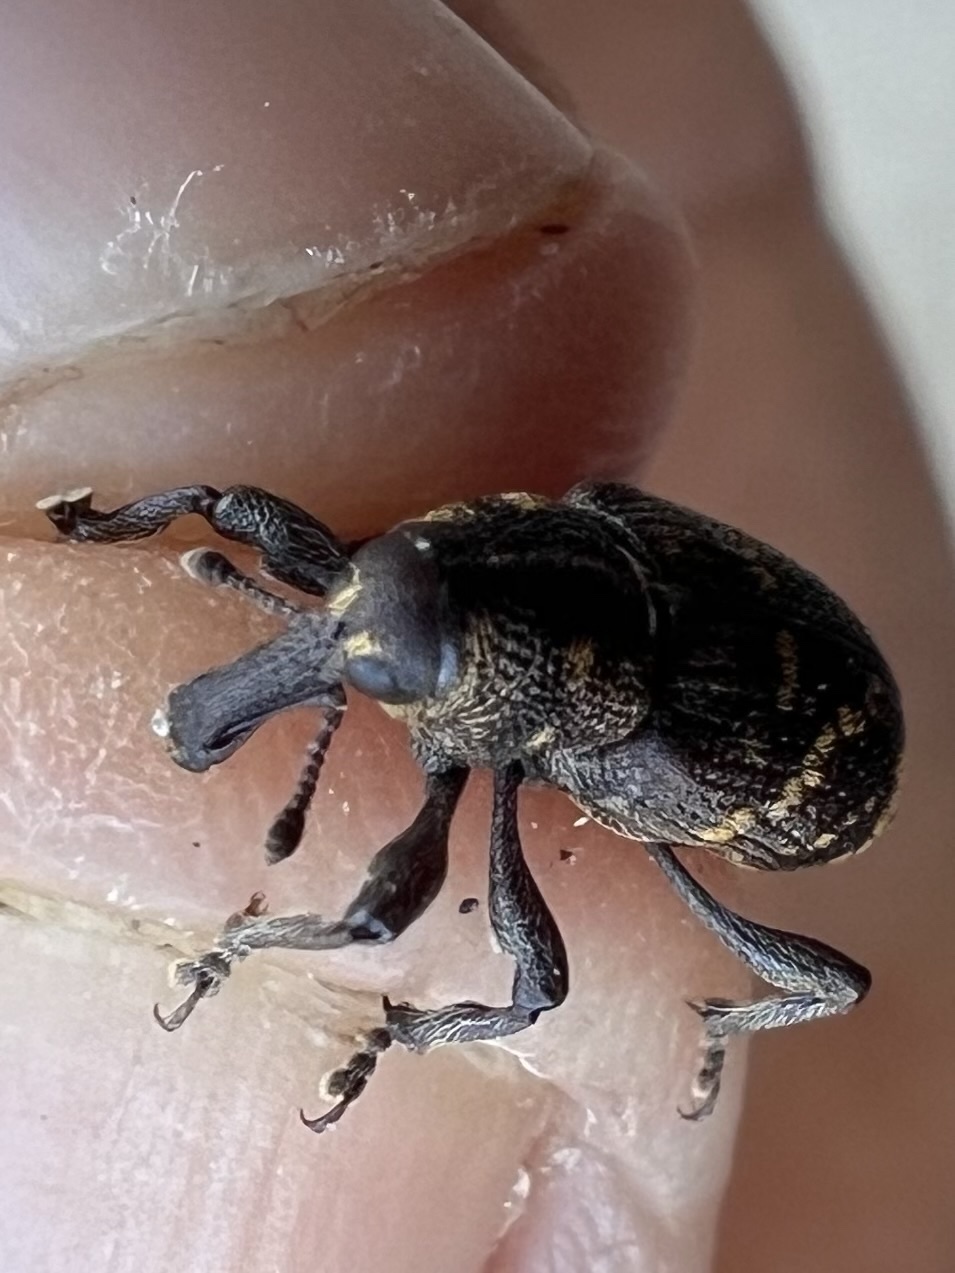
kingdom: Animalia
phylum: Arthropoda
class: Insecta
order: Coleoptera
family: Curculionidae
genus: Hylobius
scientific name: Hylobius abietis
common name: Large pine weevil
